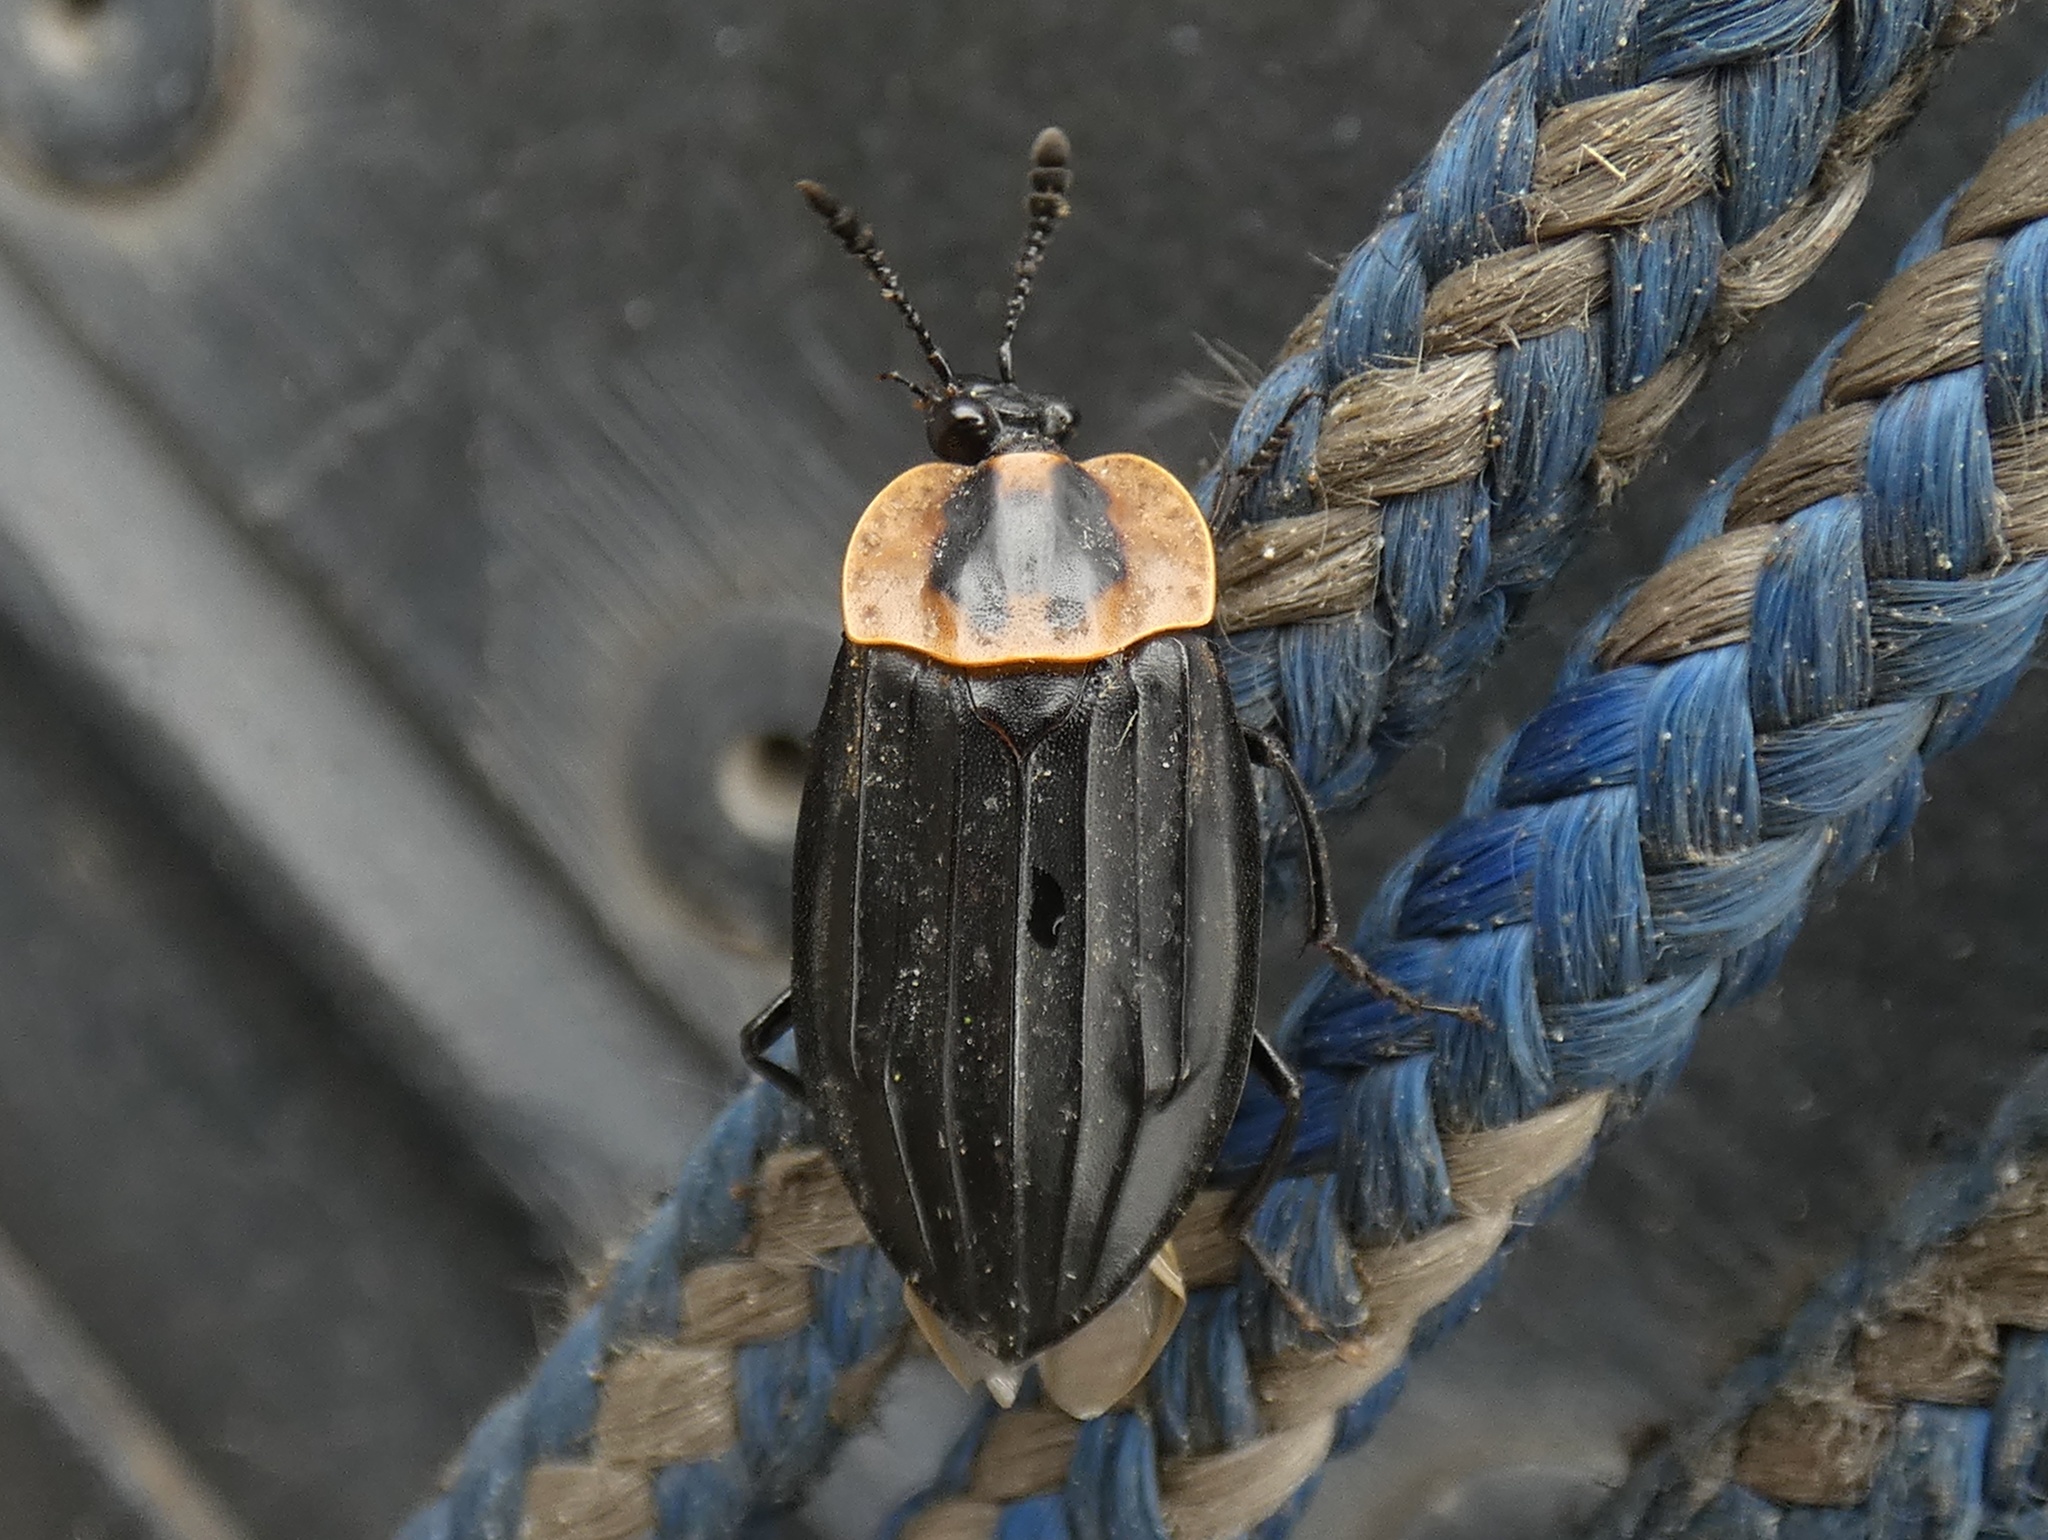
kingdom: Animalia
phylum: Arthropoda
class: Insecta
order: Coleoptera
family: Staphylinidae
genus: Oxelytrum
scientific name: Oxelytrum discicolle
